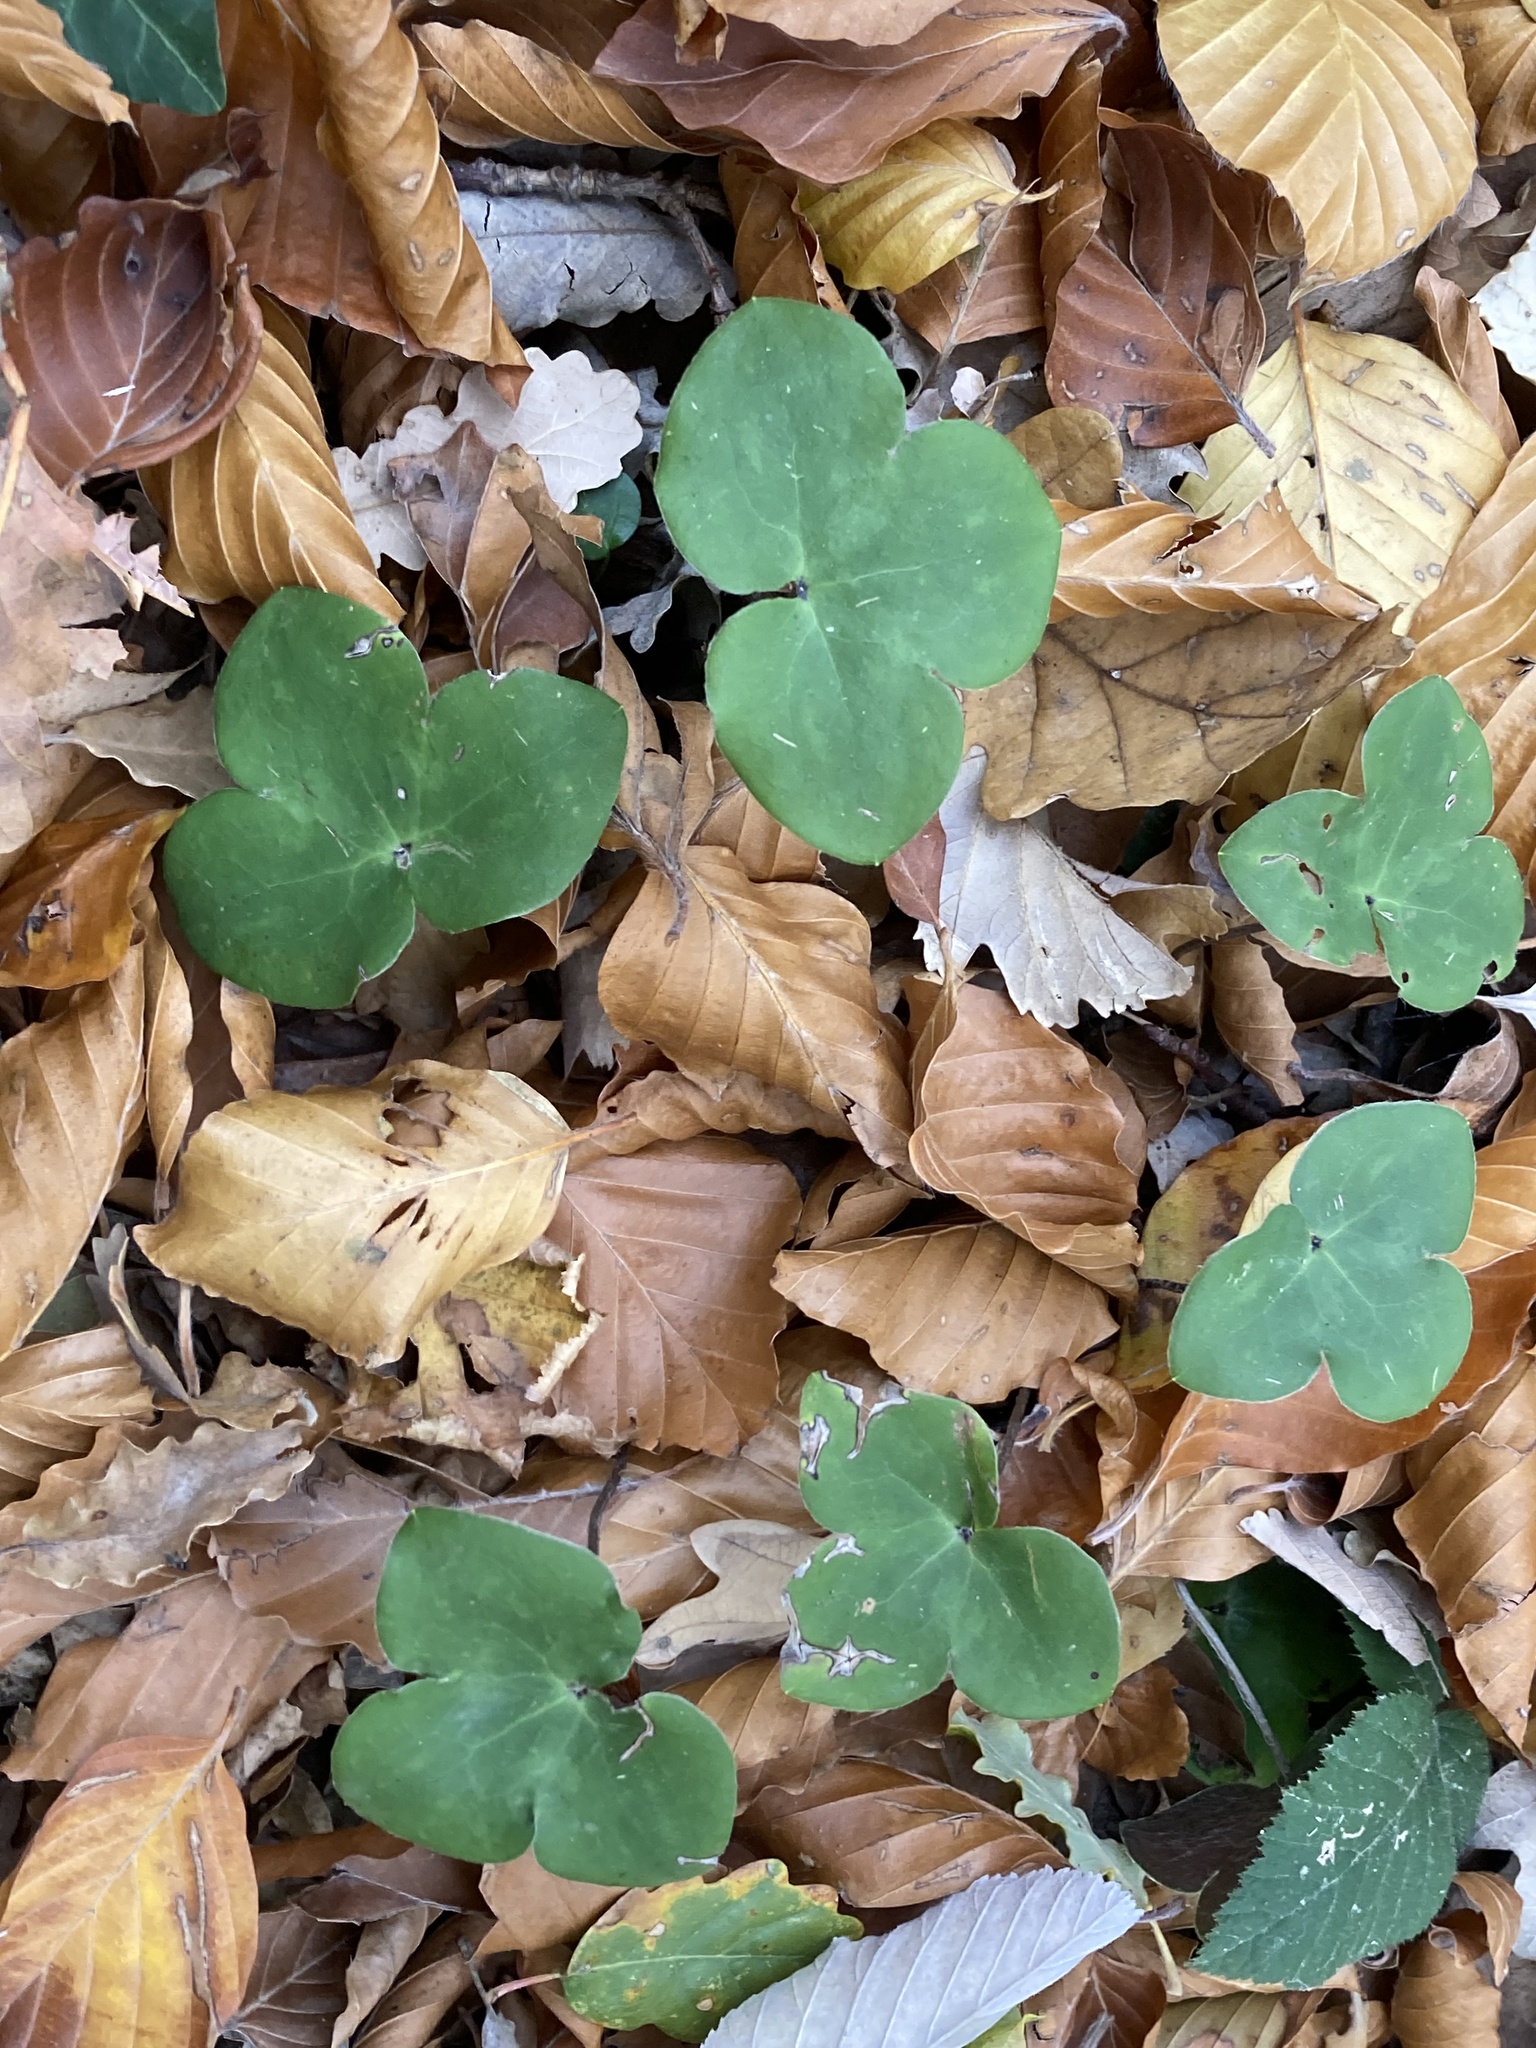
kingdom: Plantae
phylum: Tracheophyta
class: Magnoliopsida
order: Ranunculales
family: Ranunculaceae
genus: Hepatica
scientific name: Hepatica nobilis
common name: Liverleaf
